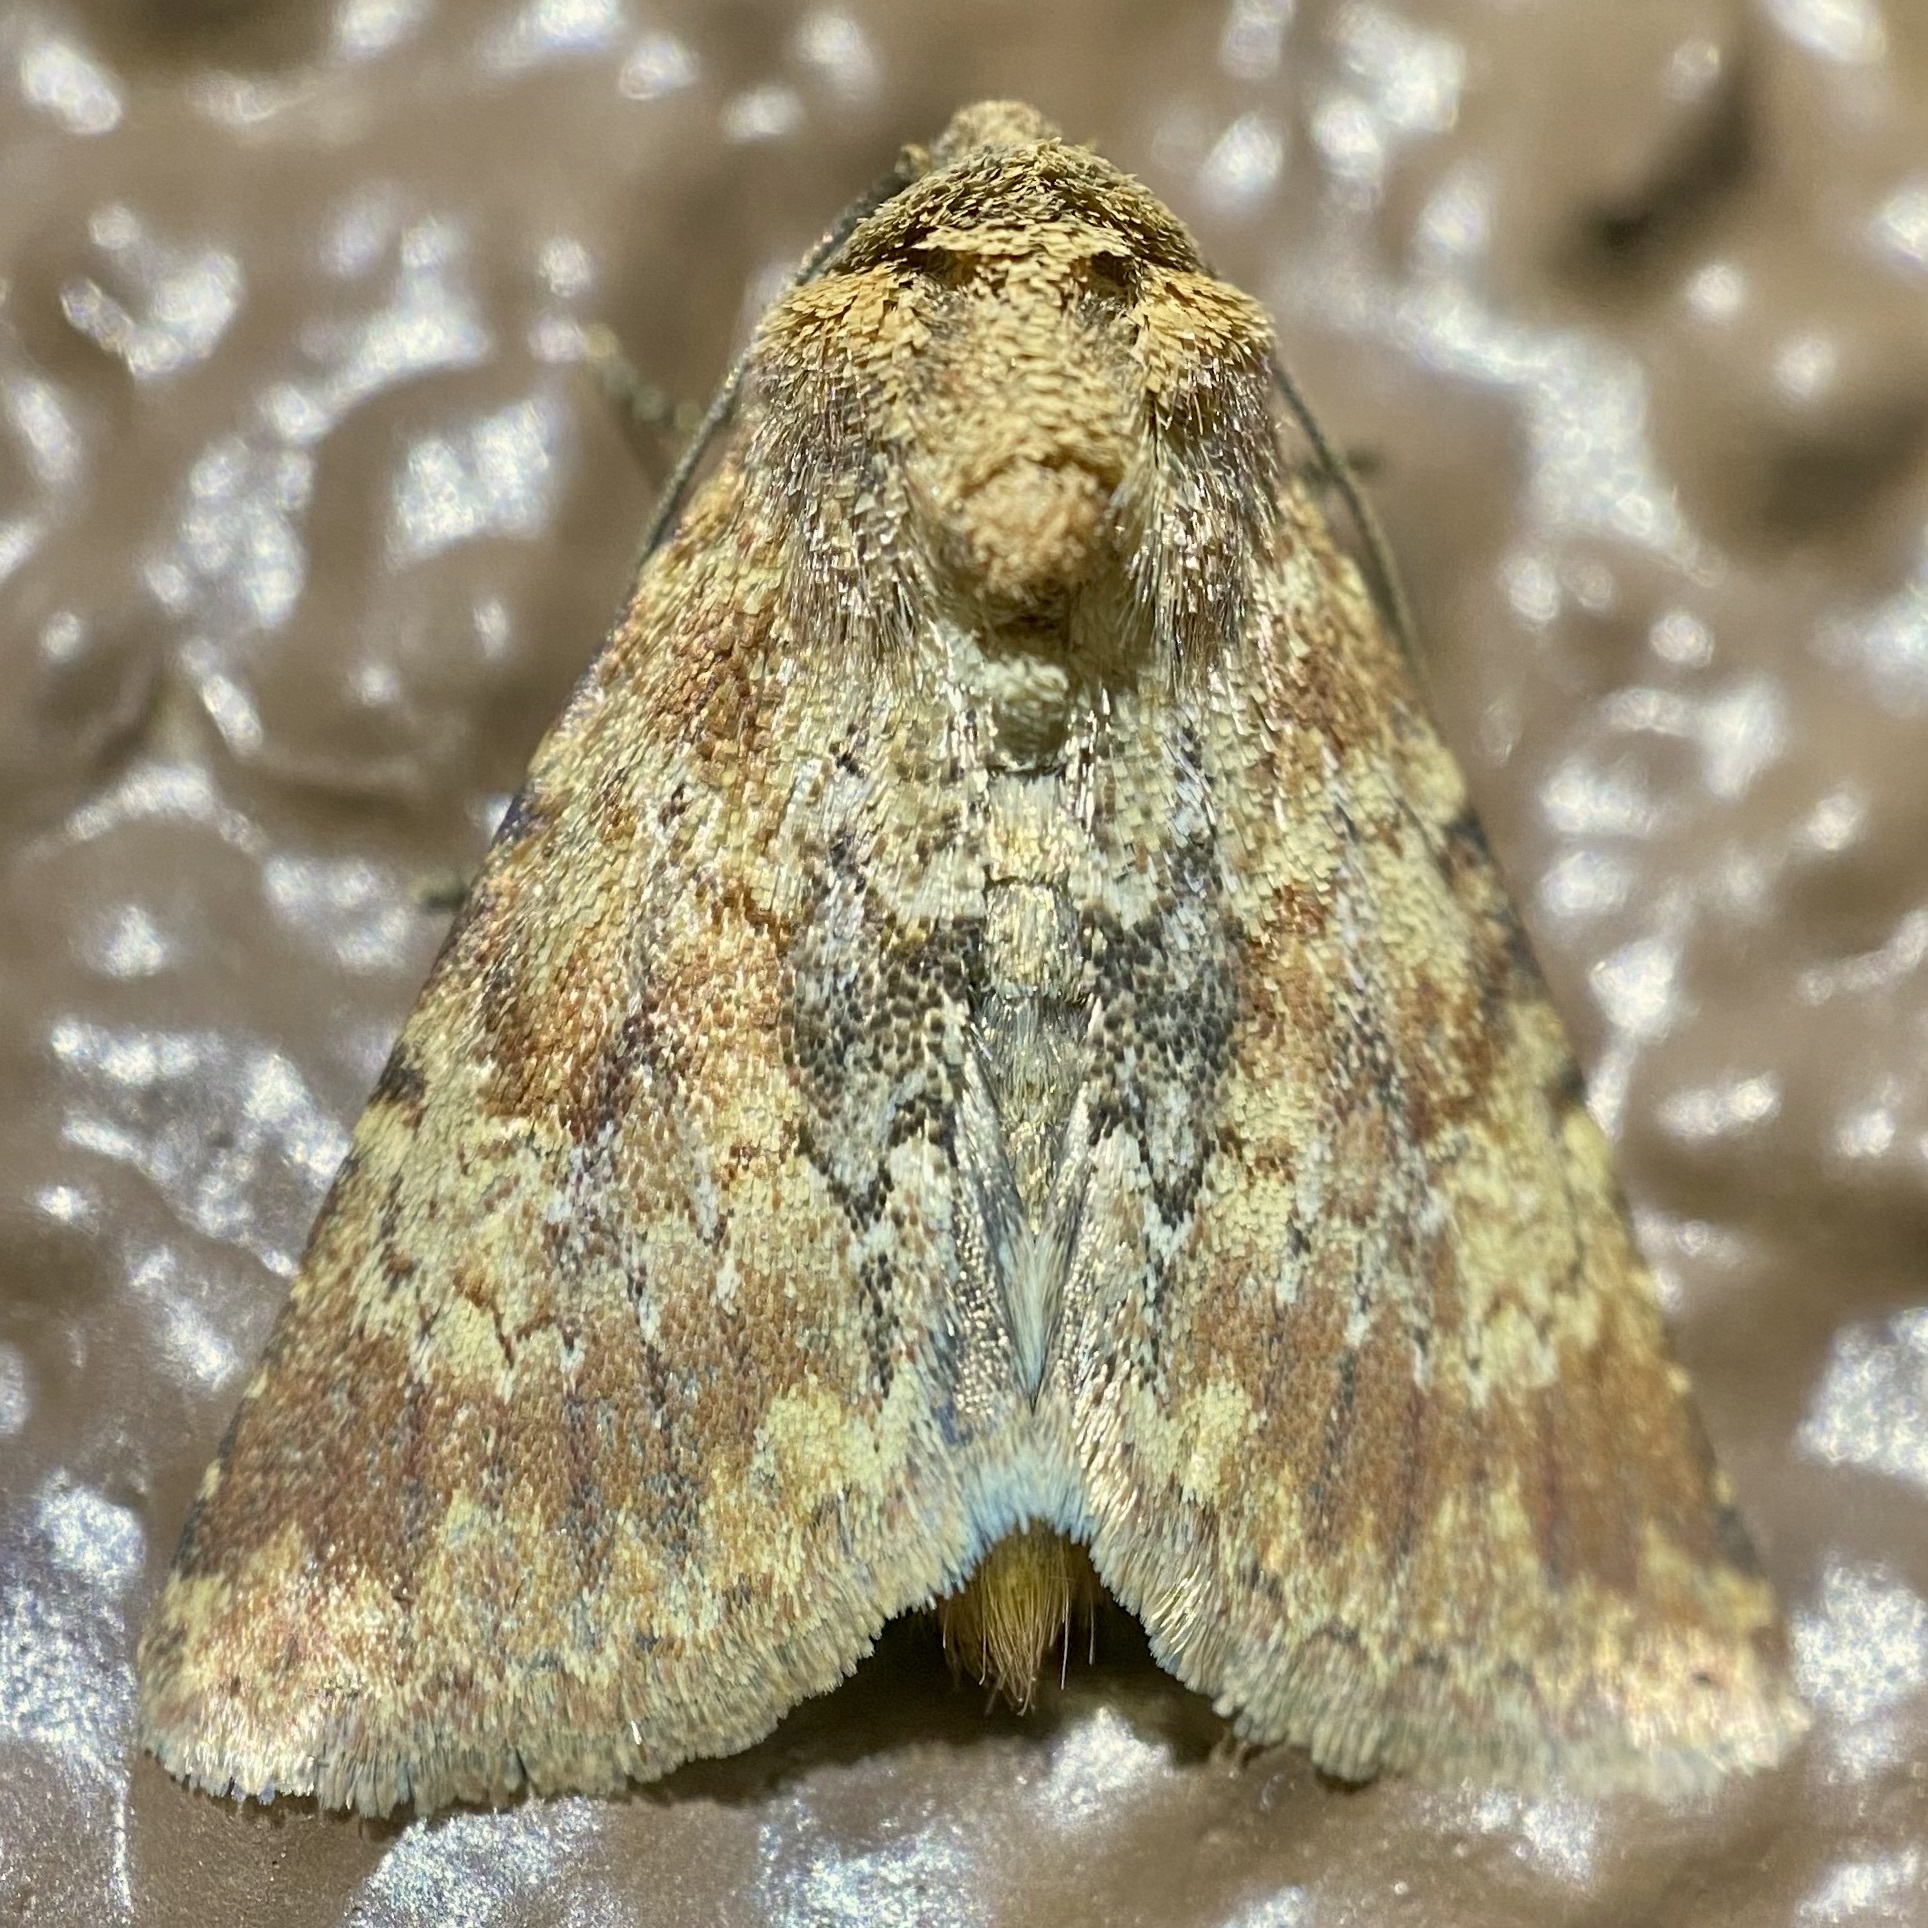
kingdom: Animalia
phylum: Arthropoda
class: Insecta
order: Lepidoptera
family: Noctuidae
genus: Properigea
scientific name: Properigea suffusa
